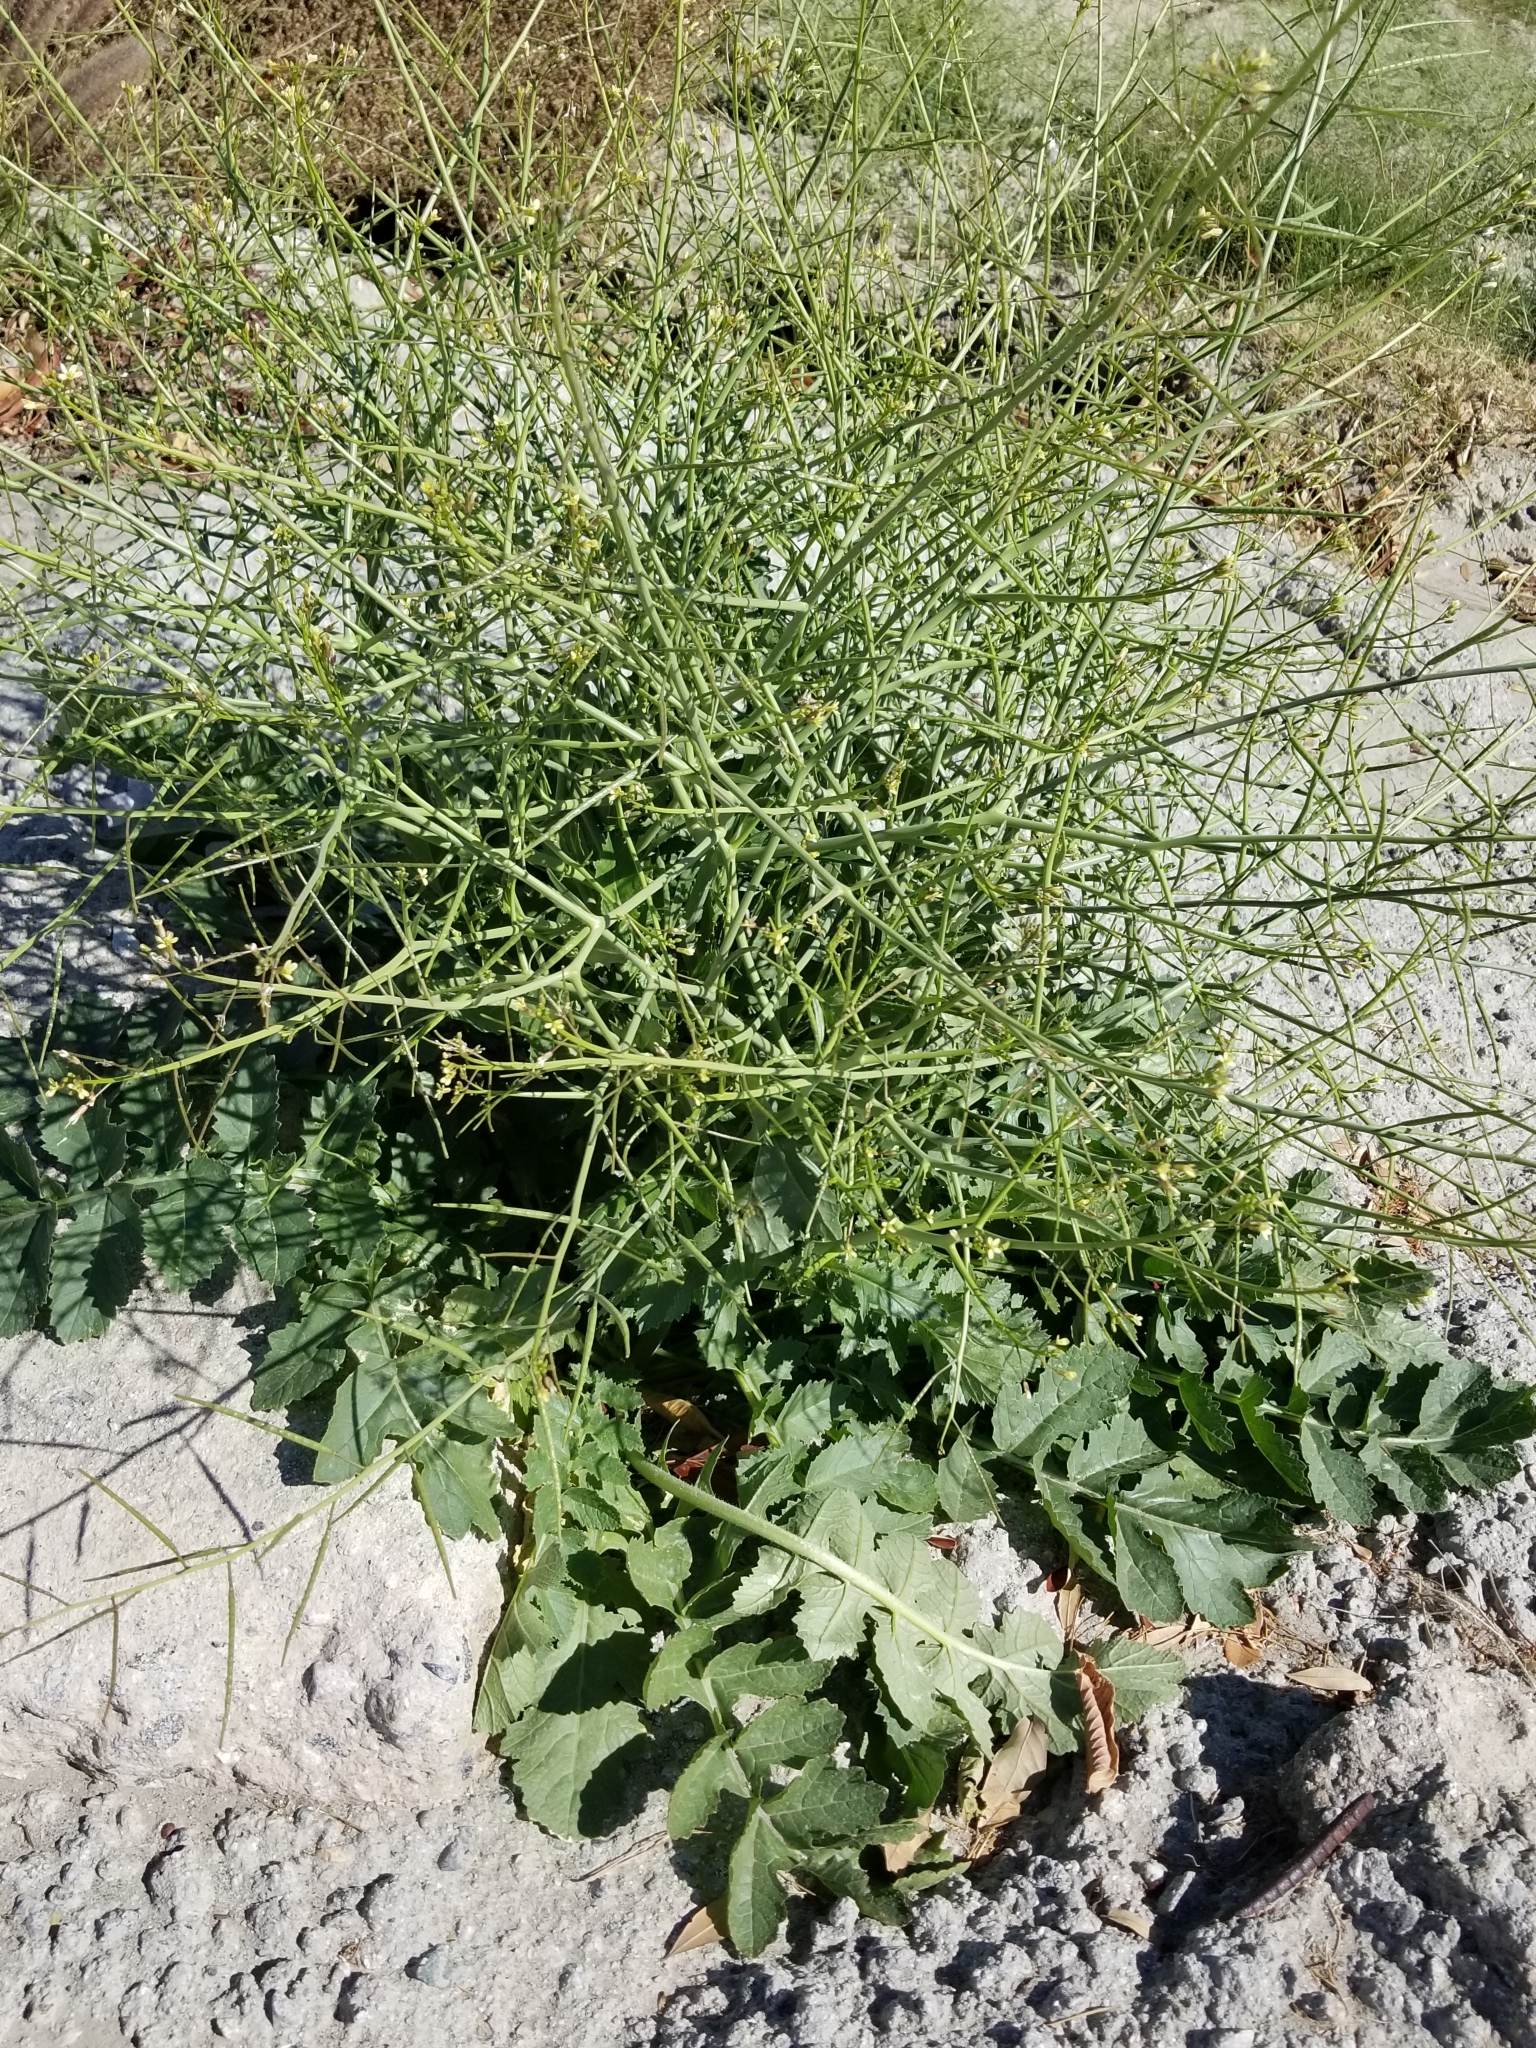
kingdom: Plantae
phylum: Tracheophyta
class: Magnoliopsida
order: Brassicales
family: Brassicaceae
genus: Brassica
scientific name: Brassica tournefortii
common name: Pale cabbage
